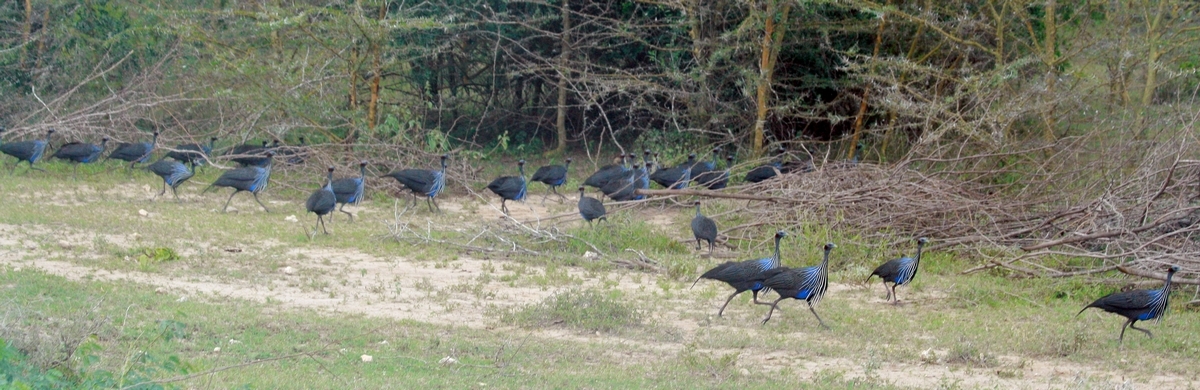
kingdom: Animalia
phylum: Chordata
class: Aves
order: Galliformes
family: Numididae
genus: Acryllium
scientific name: Acryllium vulturinum
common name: Vulturine guineafowl
